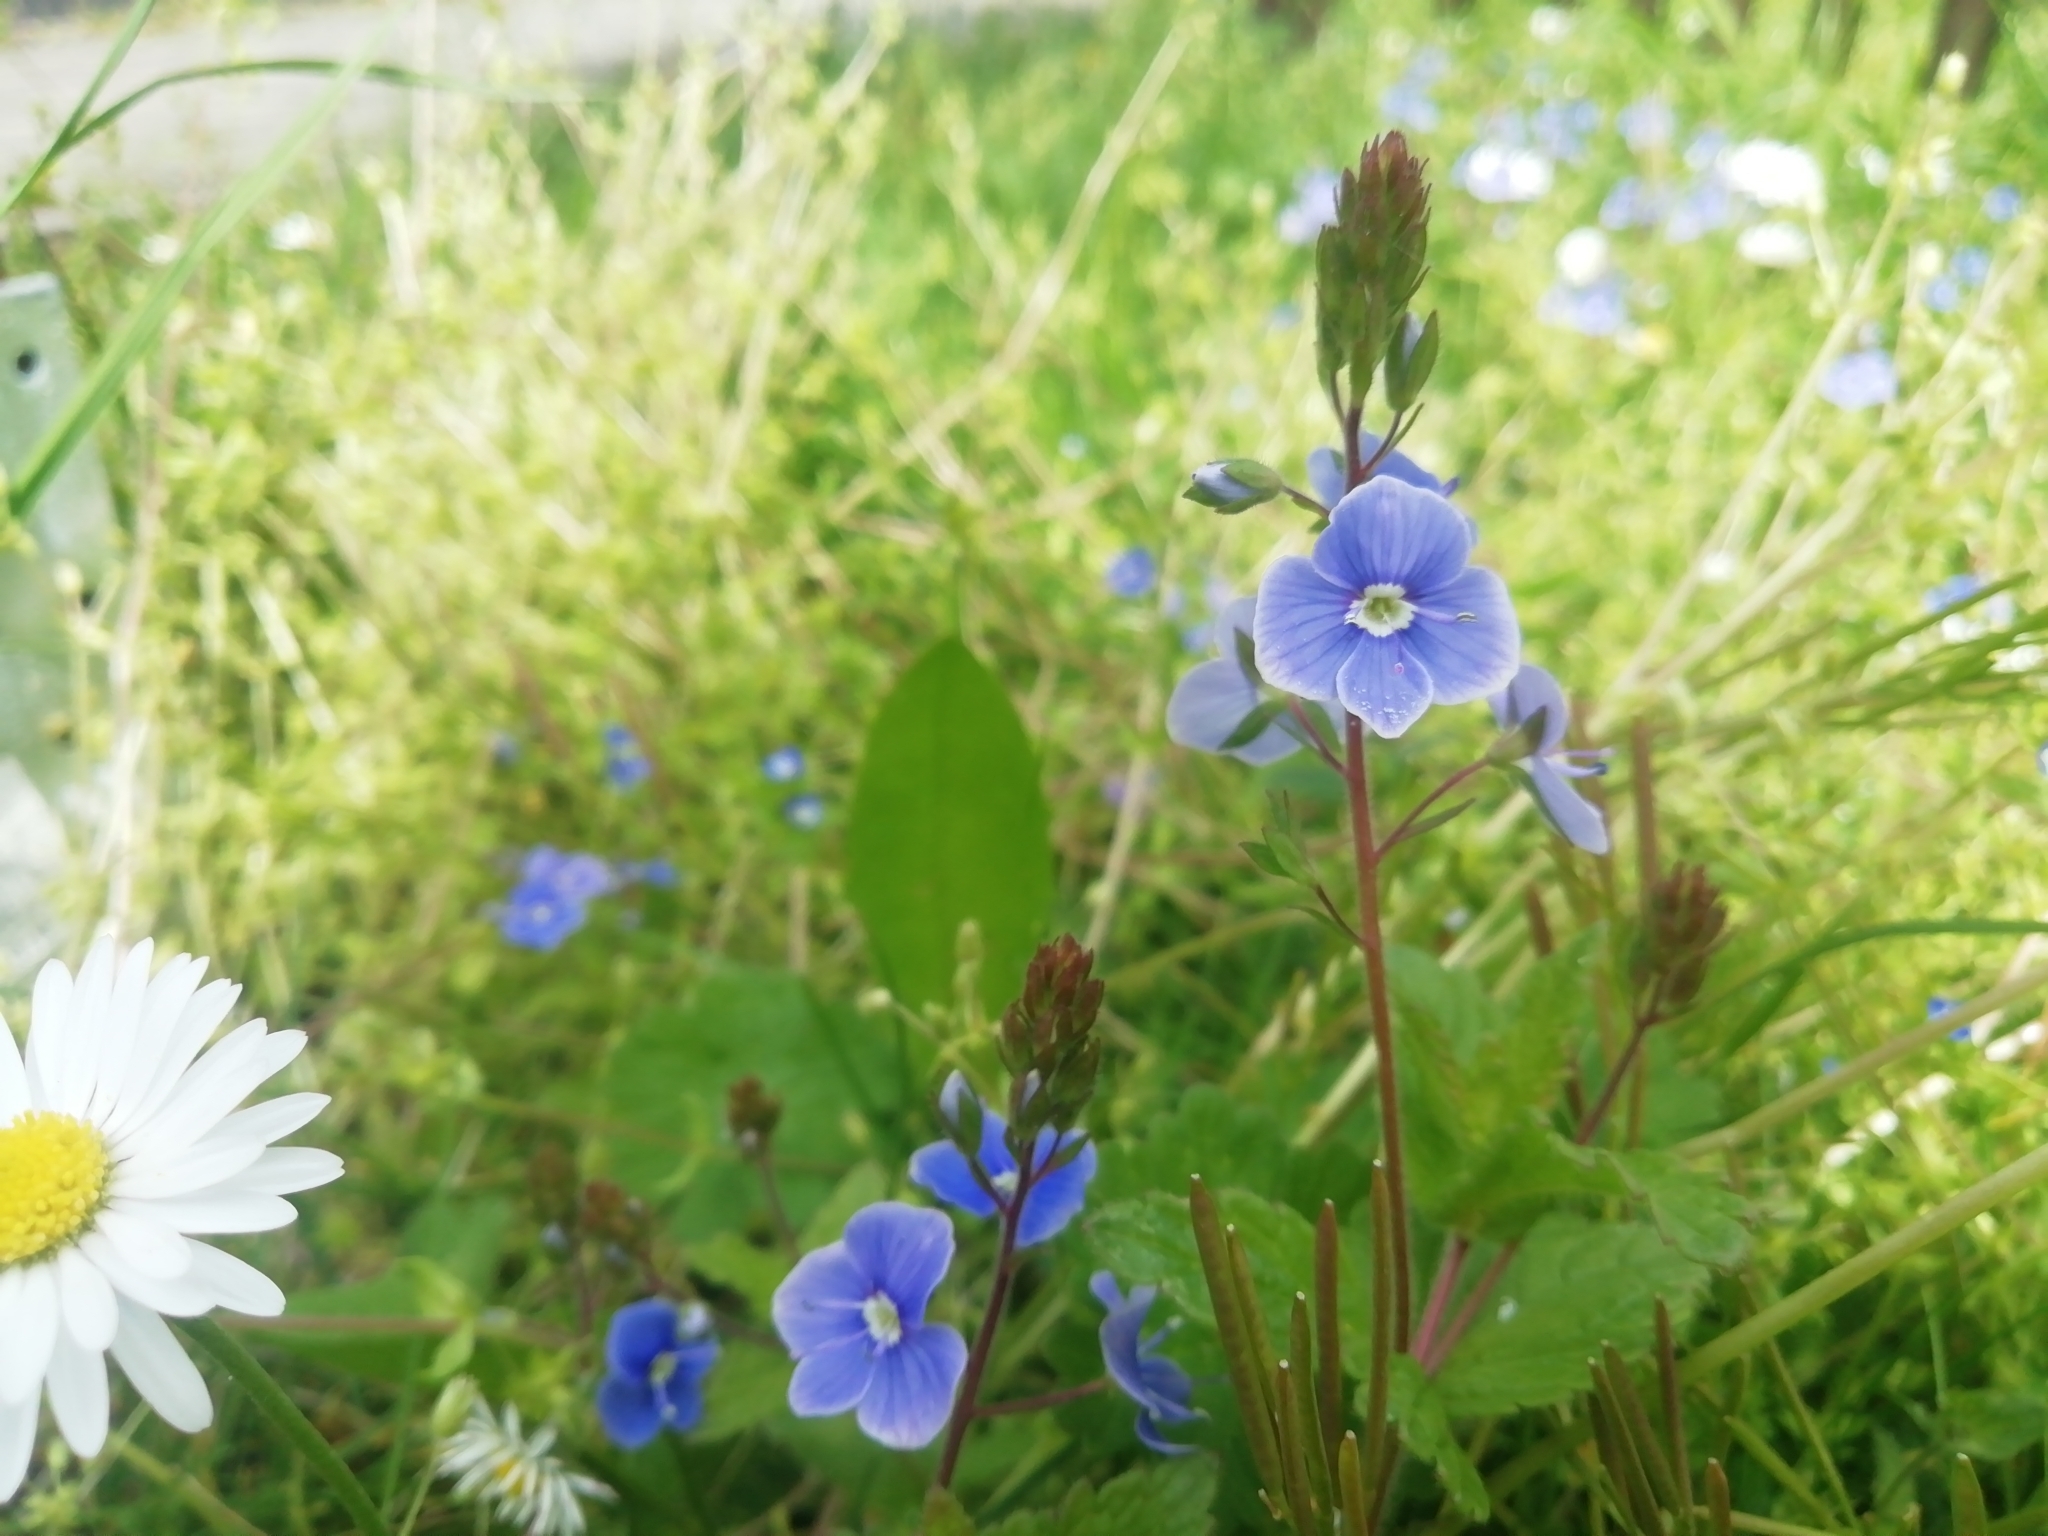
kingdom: Plantae
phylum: Tracheophyta
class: Magnoliopsida
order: Lamiales
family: Plantaginaceae
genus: Veronica
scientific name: Veronica chamaedrys
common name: Germander speedwell
